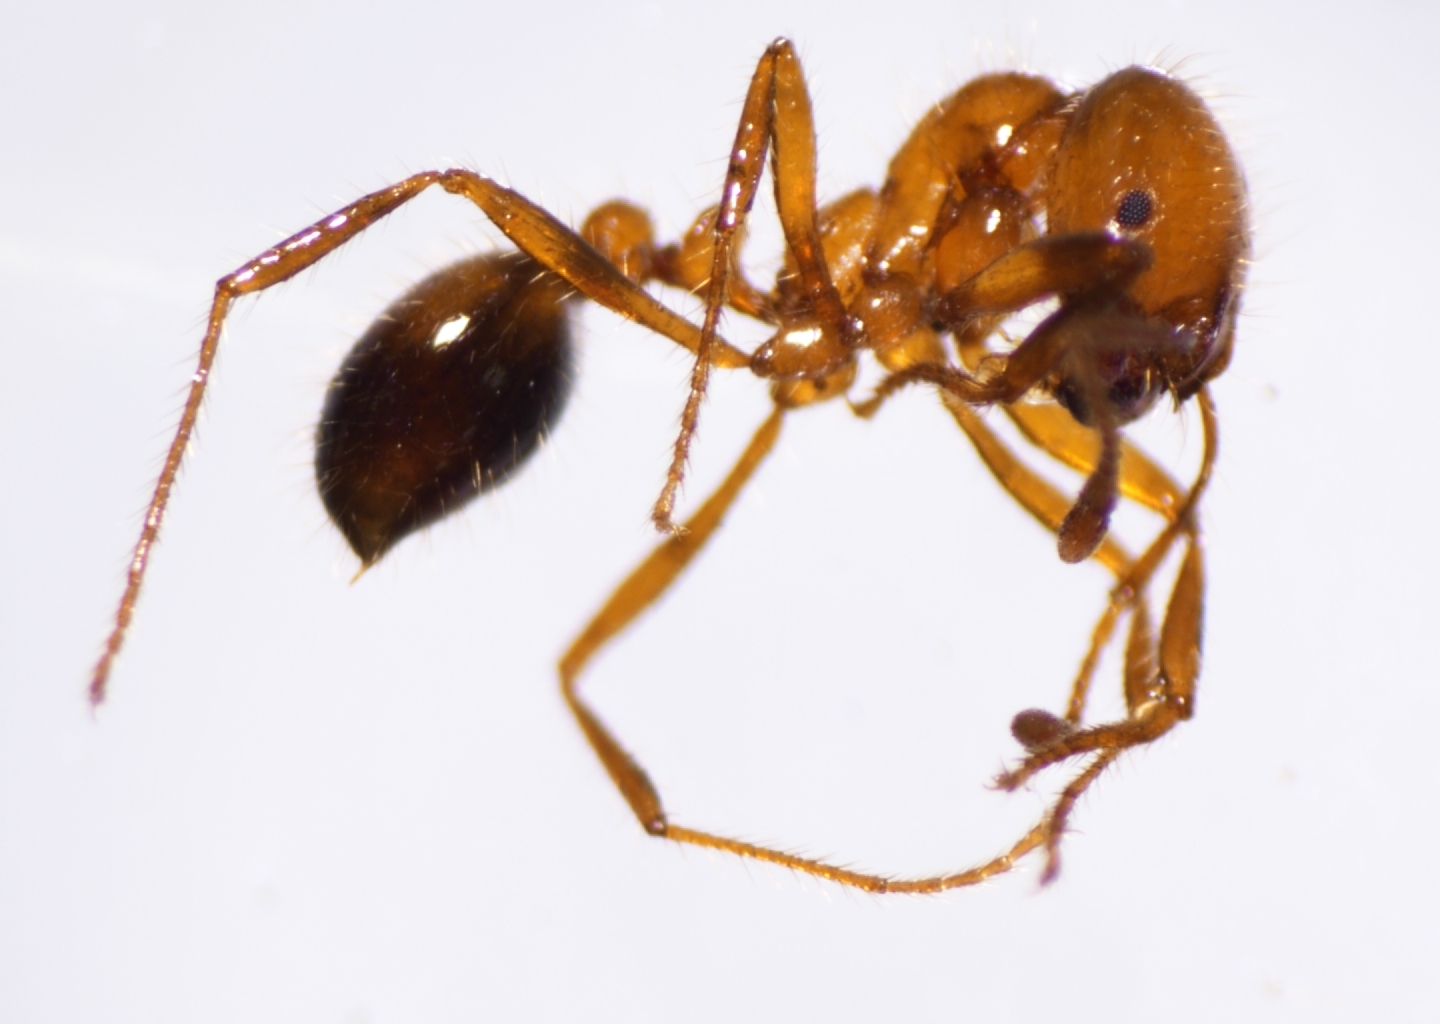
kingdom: Animalia
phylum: Arthropoda
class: Insecta
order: Hymenoptera
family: Formicidae
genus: Solenopsis
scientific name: Solenopsis geminata
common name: Tropical fire ant
